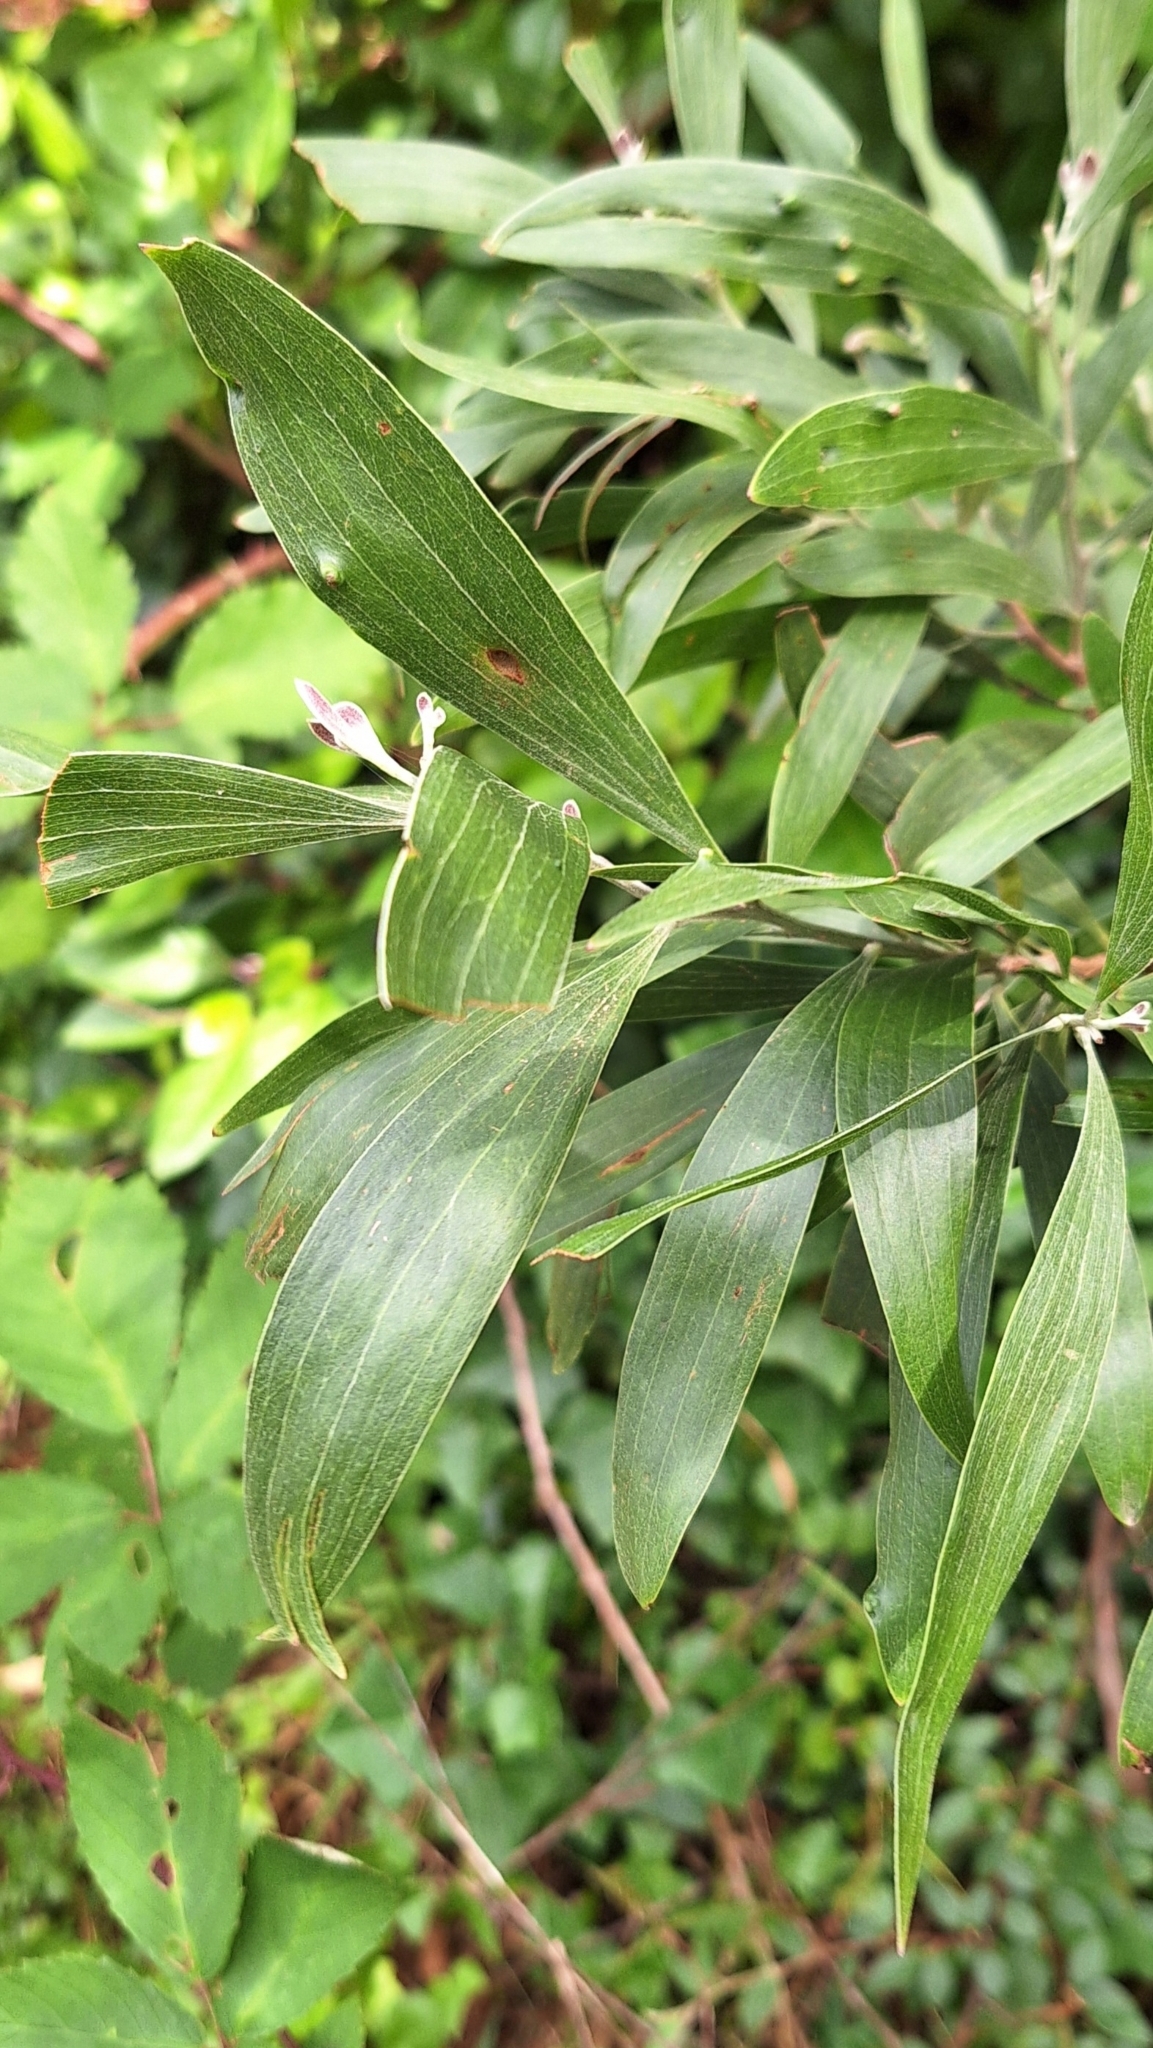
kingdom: Plantae
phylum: Tracheophyta
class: Magnoliopsida
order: Fabales
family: Fabaceae
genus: Acacia
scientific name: Acacia melanoxylon
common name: Blackwood
